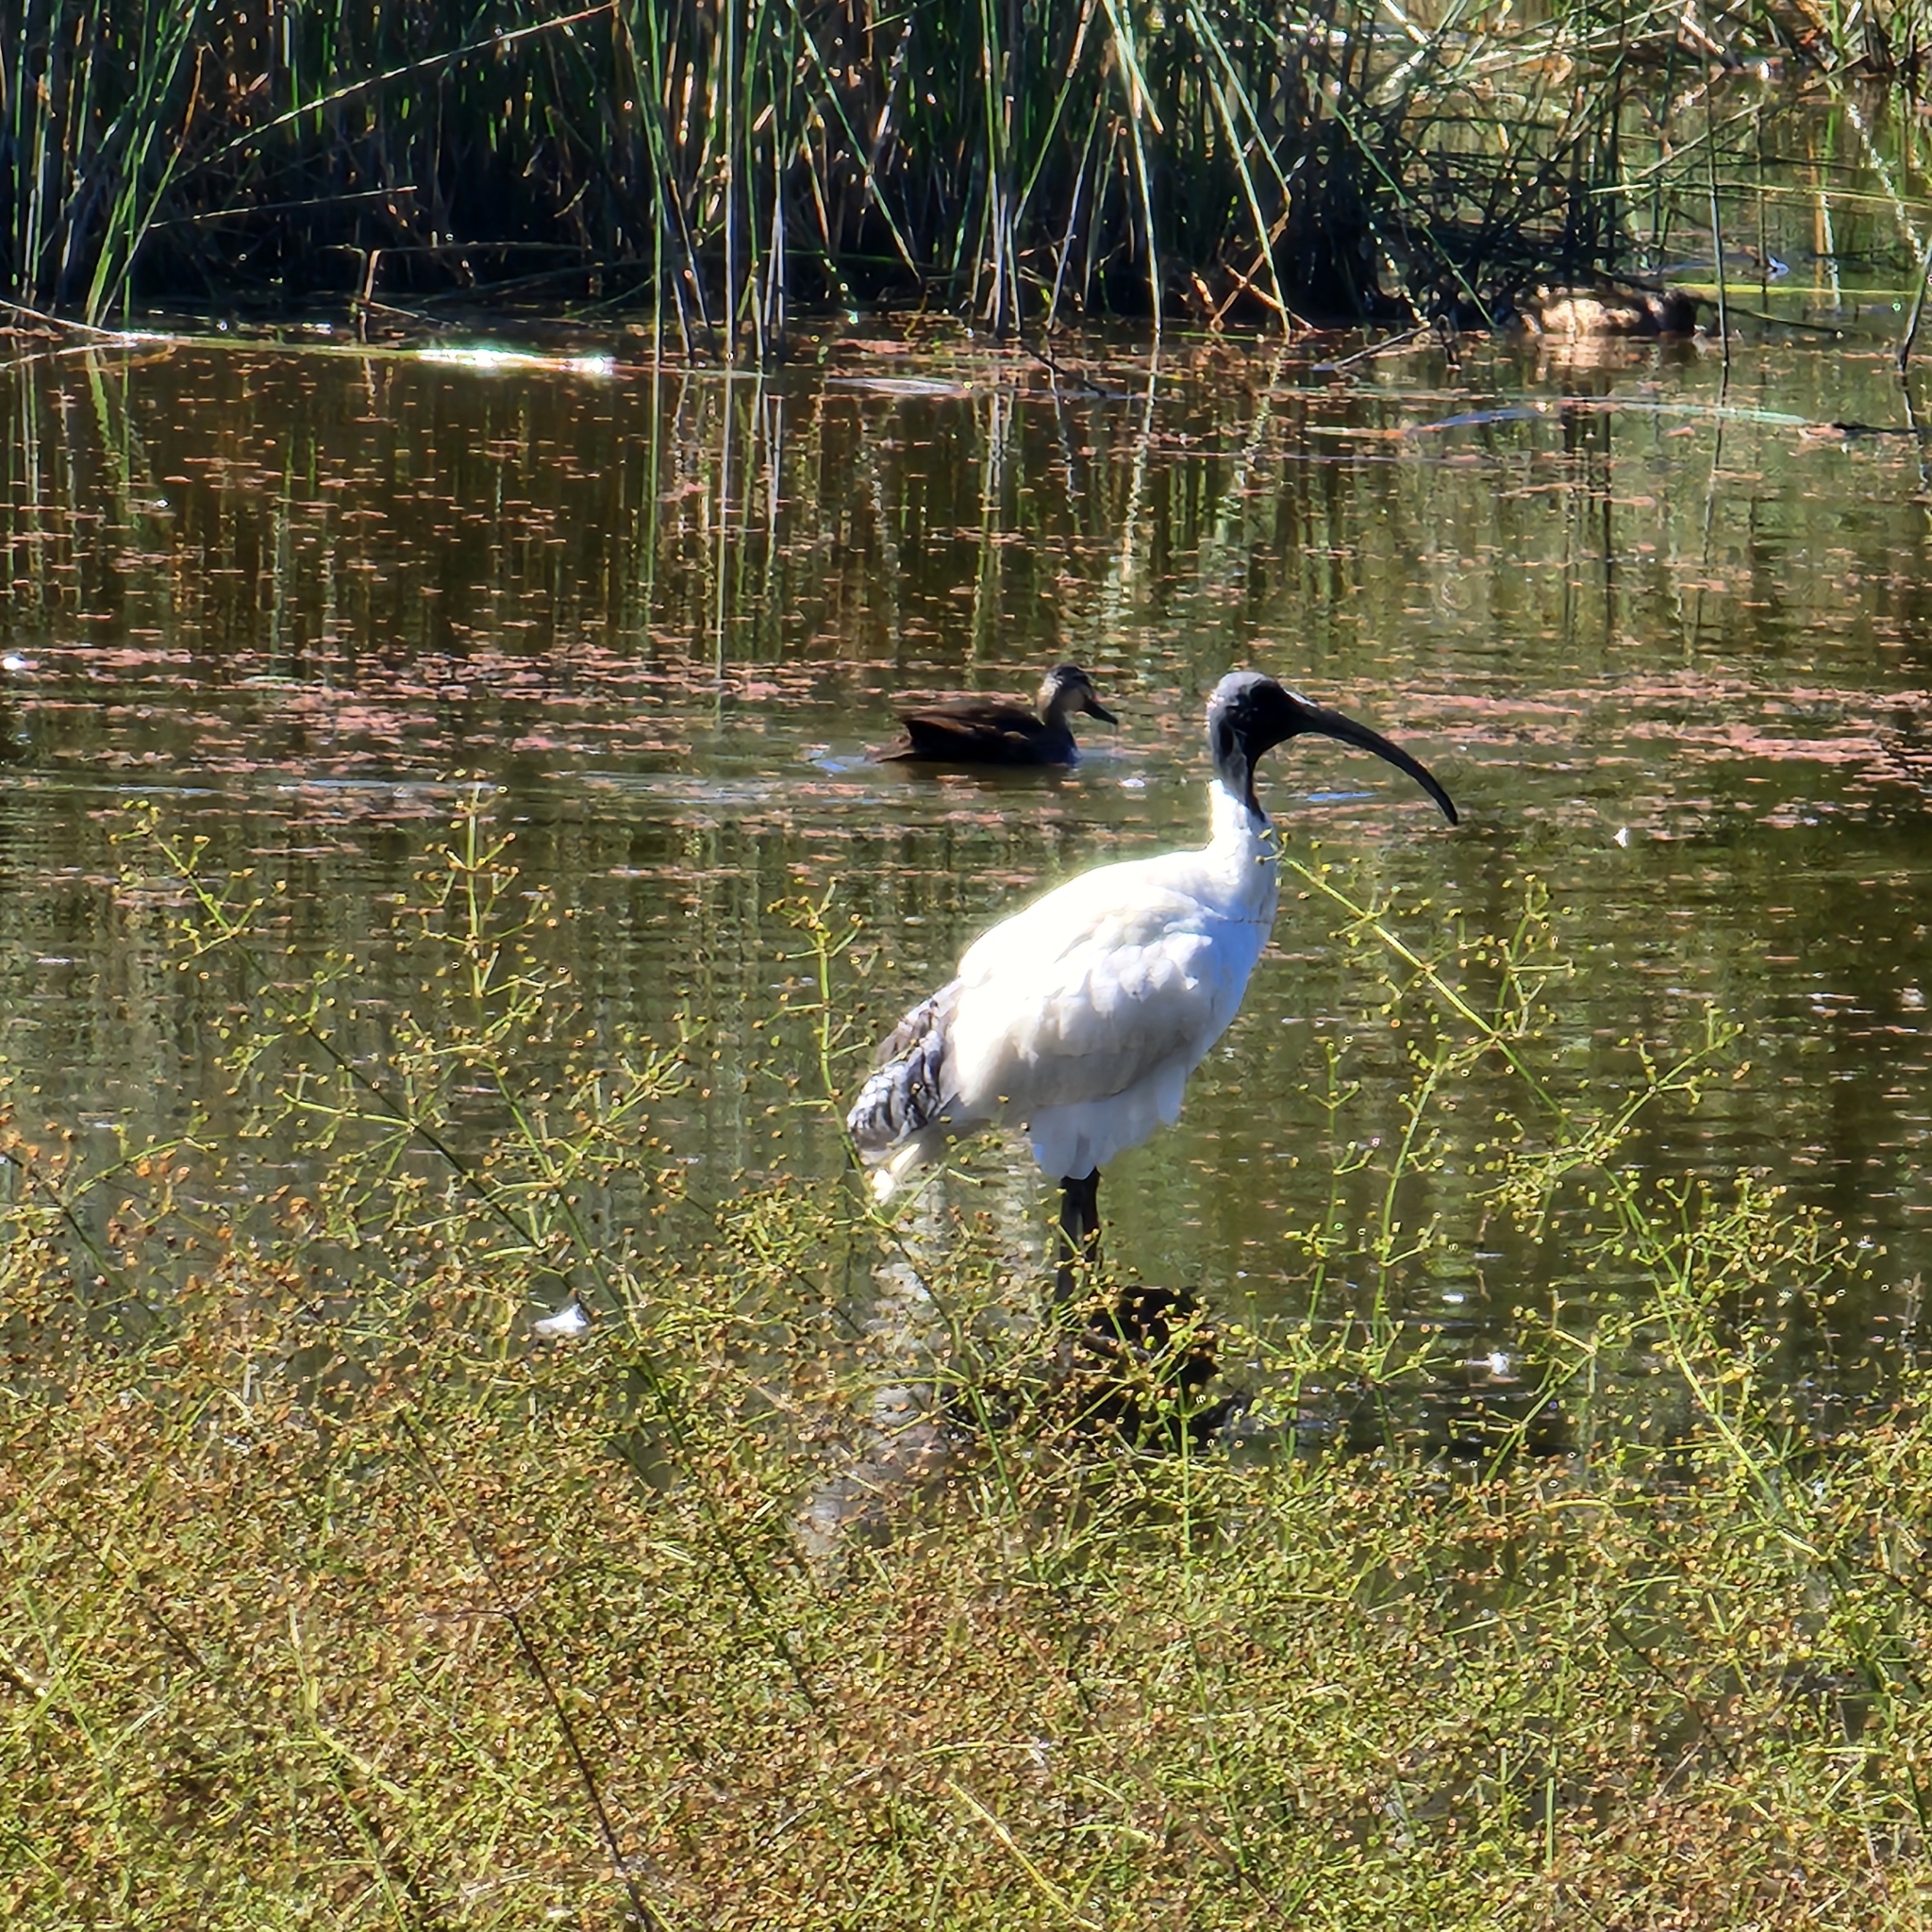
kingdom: Animalia
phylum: Chordata
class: Aves
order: Pelecaniformes
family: Threskiornithidae
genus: Threskiornis
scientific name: Threskiornis molucca
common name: Australian white ibis
